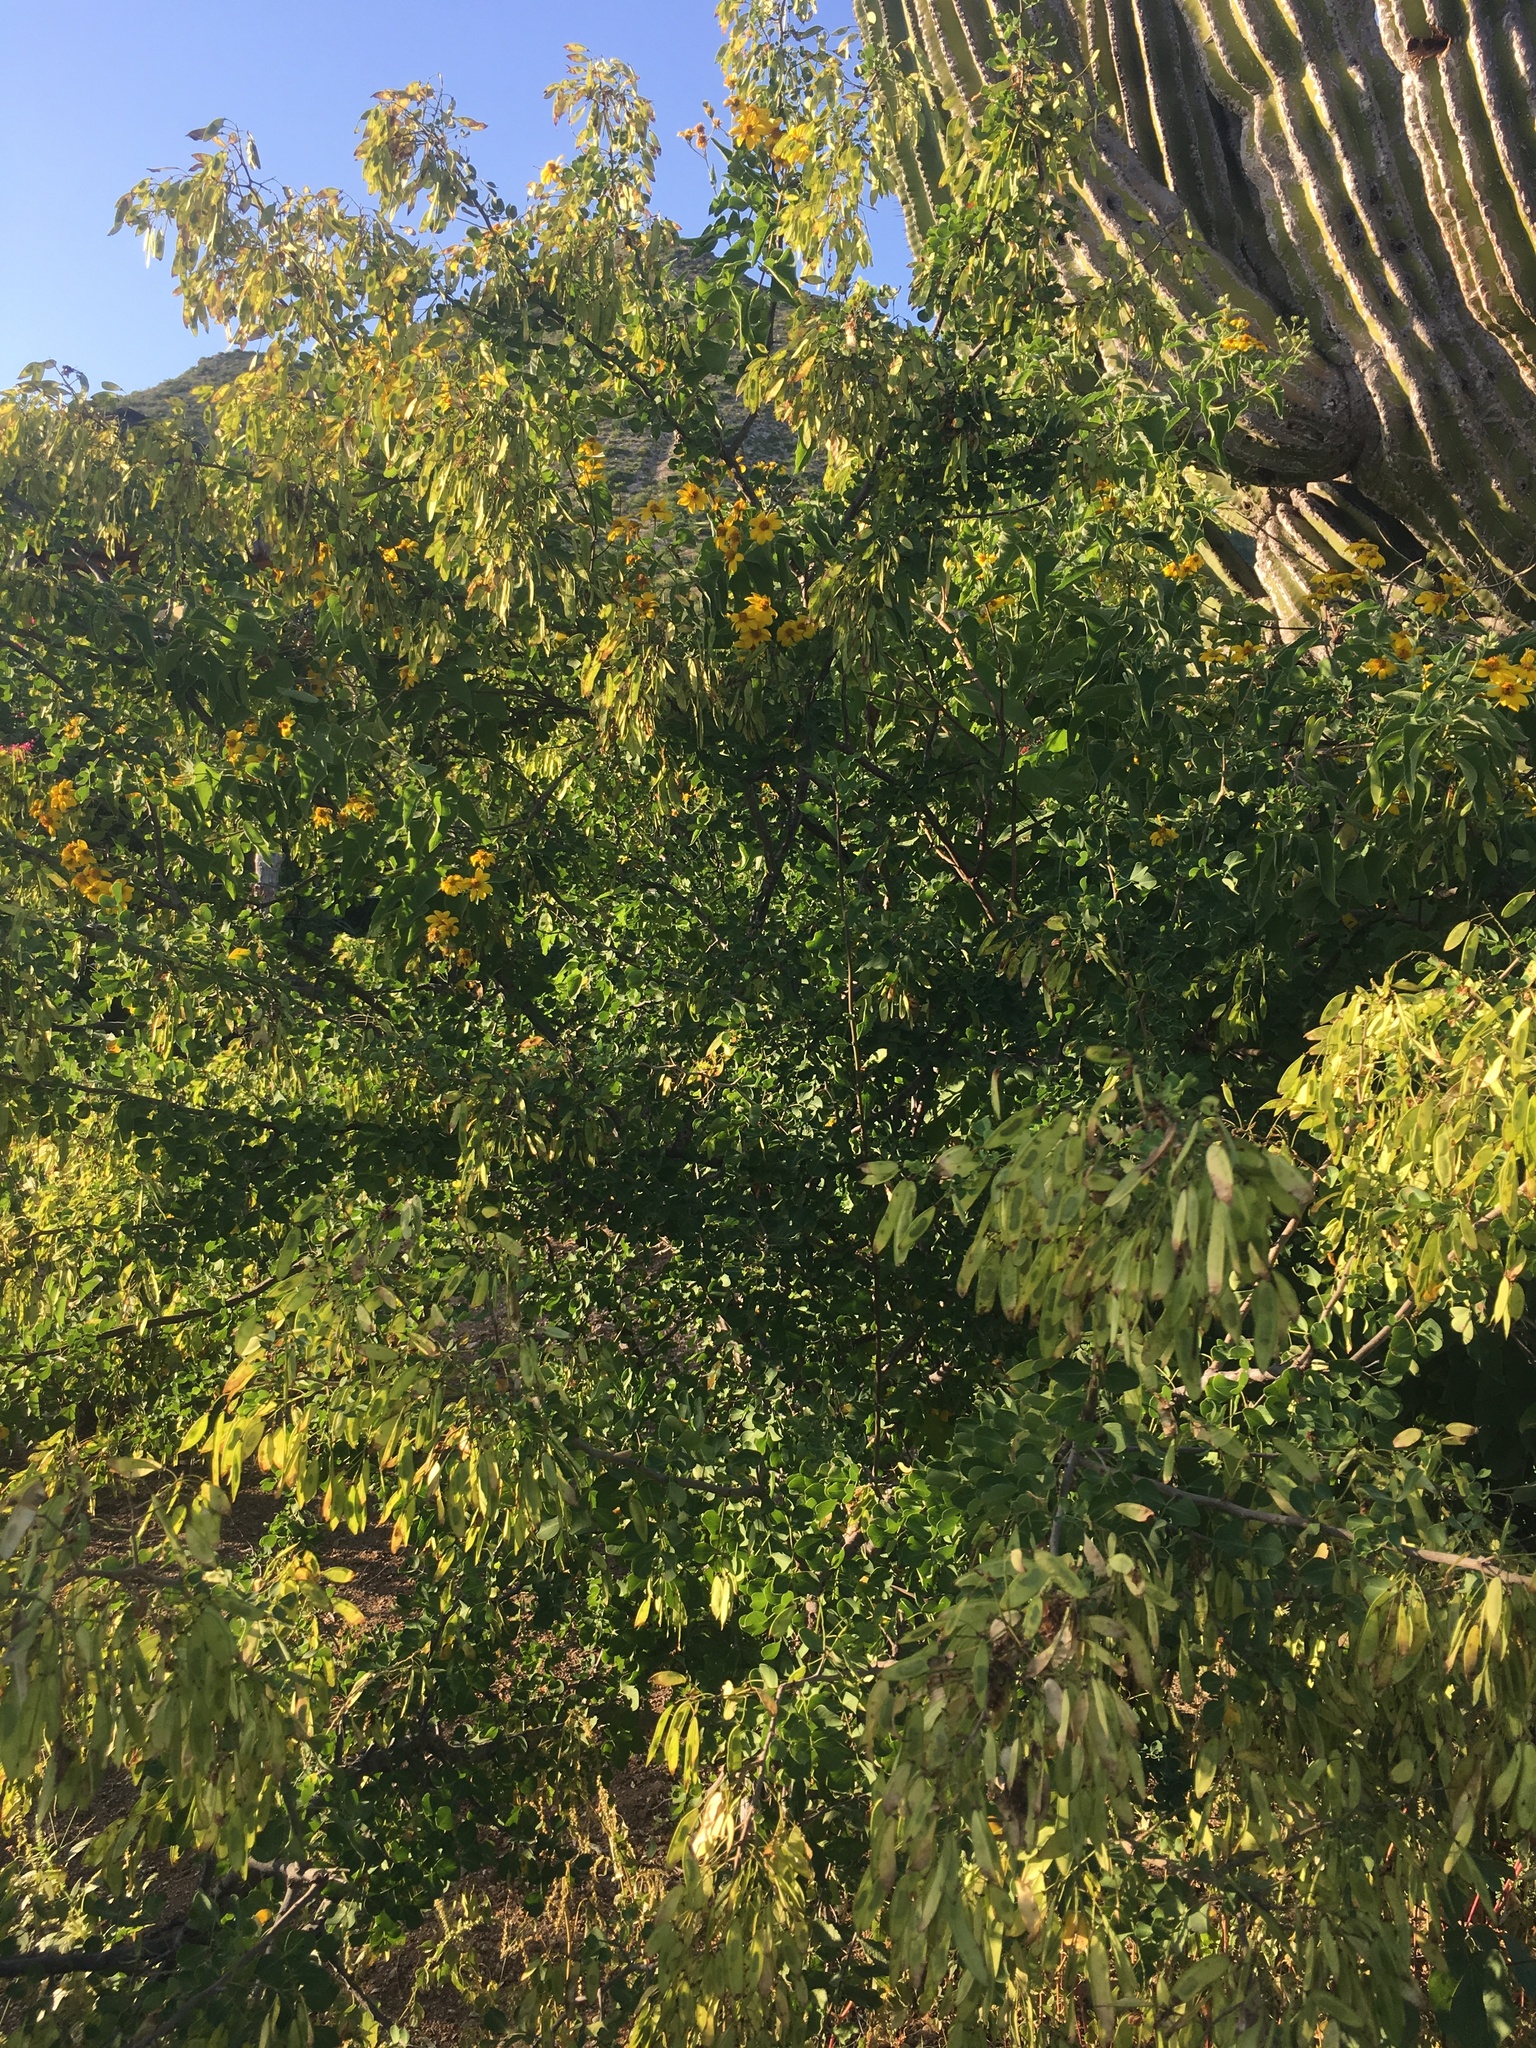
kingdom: Plantae
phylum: Tracheophyta
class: Magnoliopsida
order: Fabales
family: Fabaceae
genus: Haematoxylum
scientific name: Haematoxylum brasiletto
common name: Peachwood
